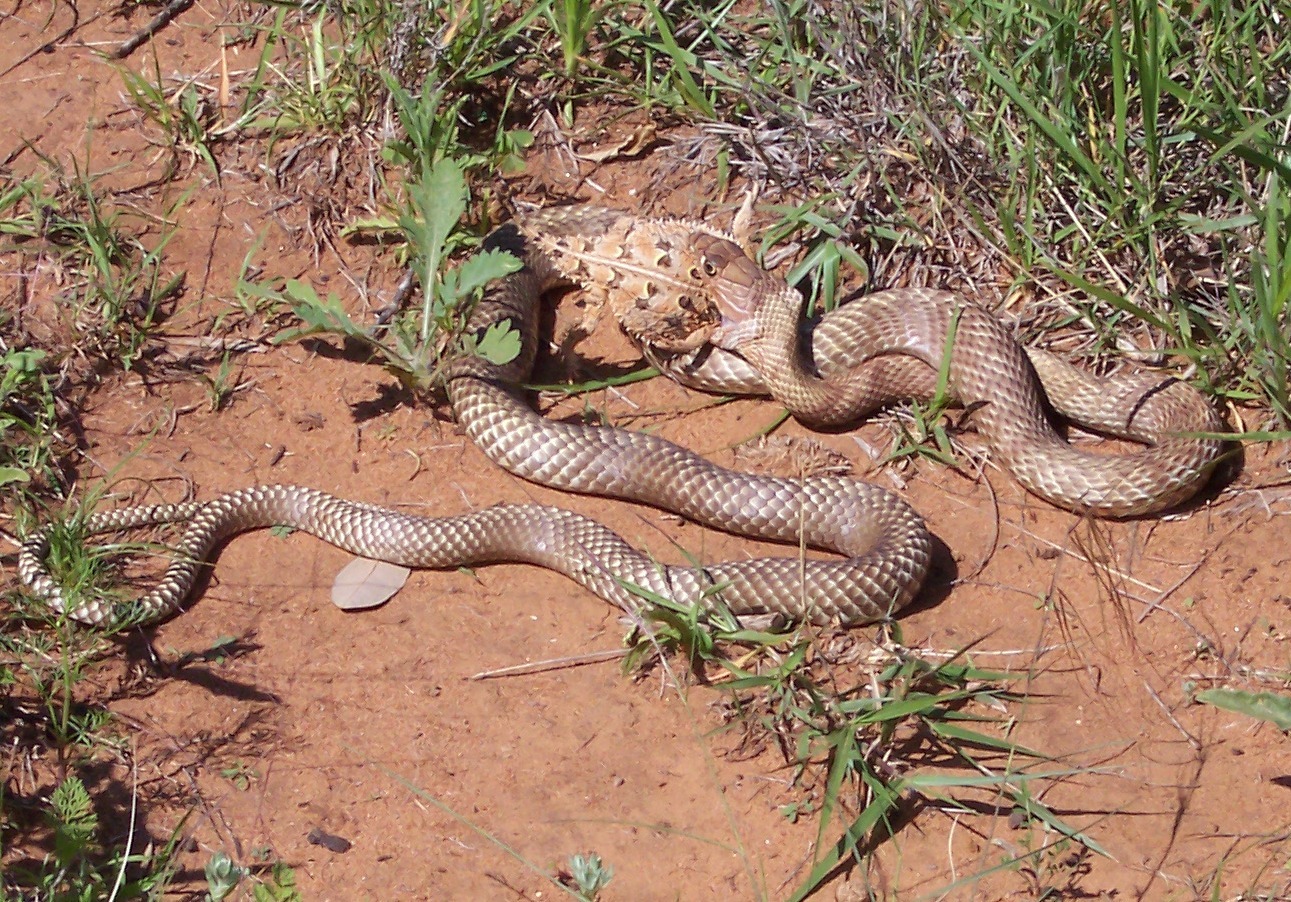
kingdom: Animalia
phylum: Chordata
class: Squamata
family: Colubridae
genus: Masticophis
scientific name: Masticophis flagellum
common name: Coachwhip
